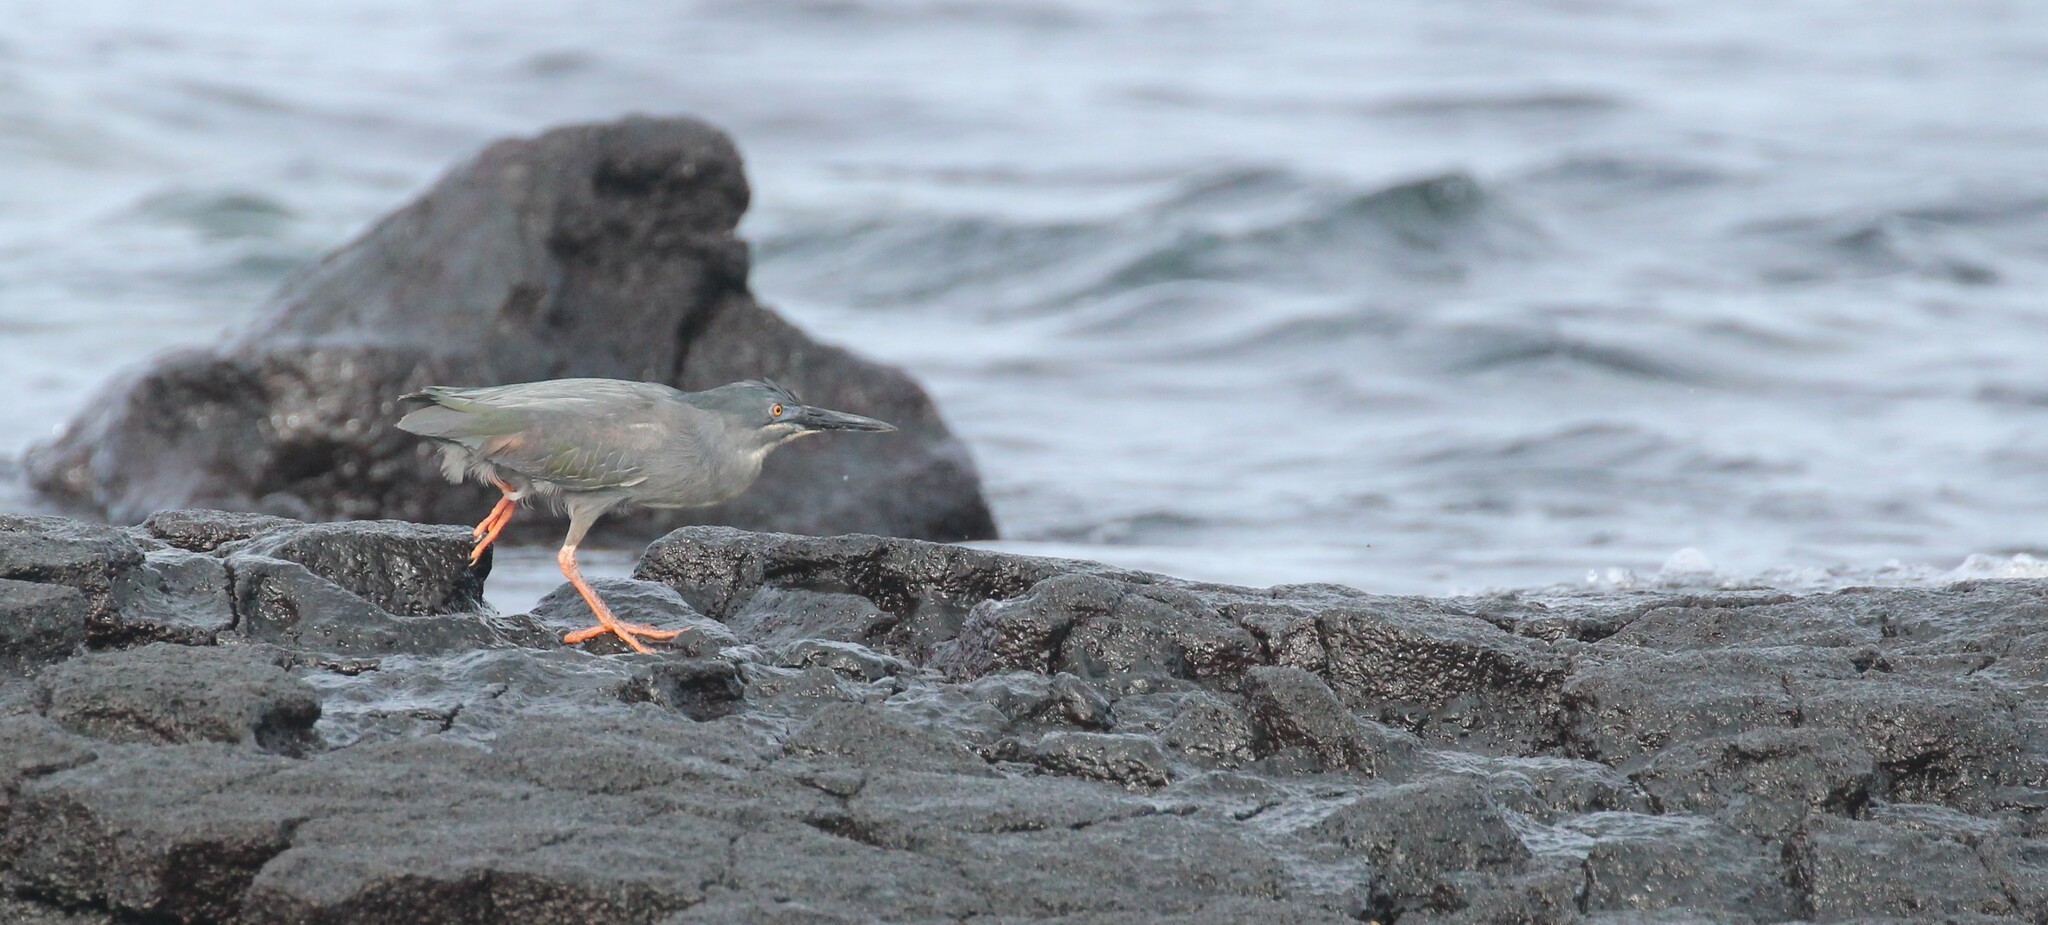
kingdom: Animalia
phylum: Chordata
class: Aves
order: Pelecaniformes
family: Ardeidae
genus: Butorides
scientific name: Butorides striata
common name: Striated heron
